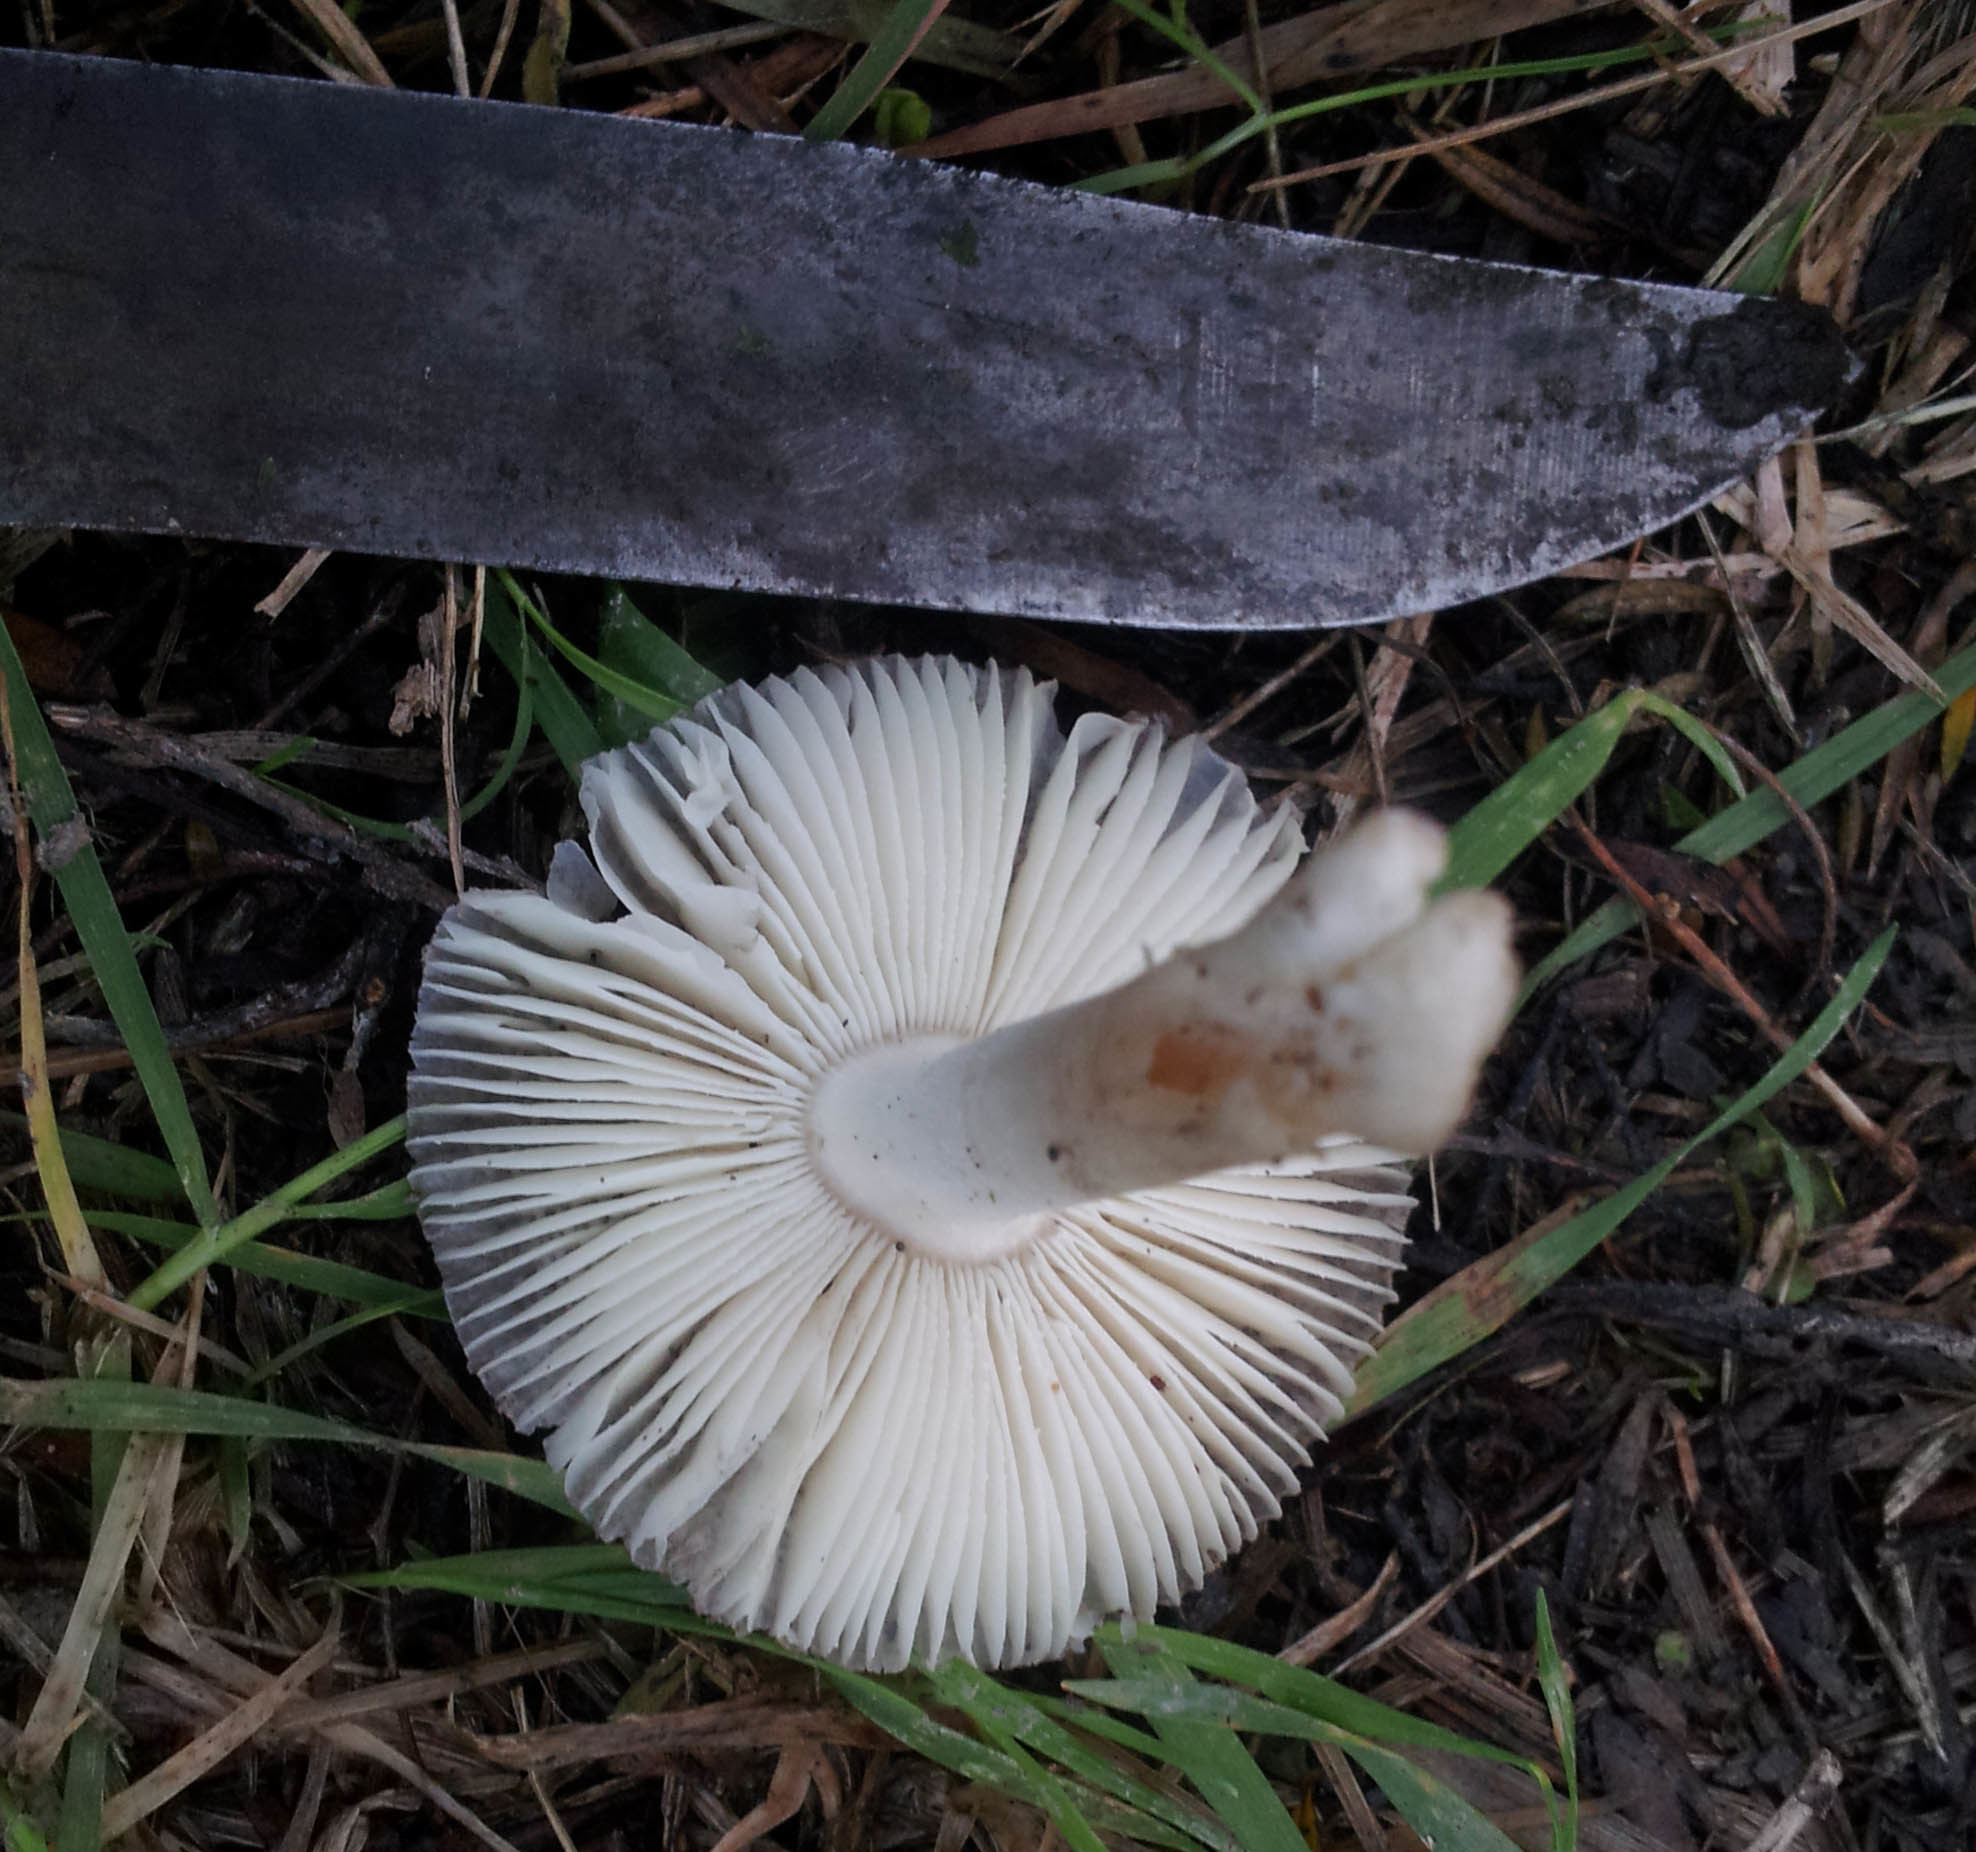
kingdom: Fungi
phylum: Basidiomycota
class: Agaricomycetes
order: Agaricales
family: Amanitaceae
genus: Amanita
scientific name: Amanita nehuta
